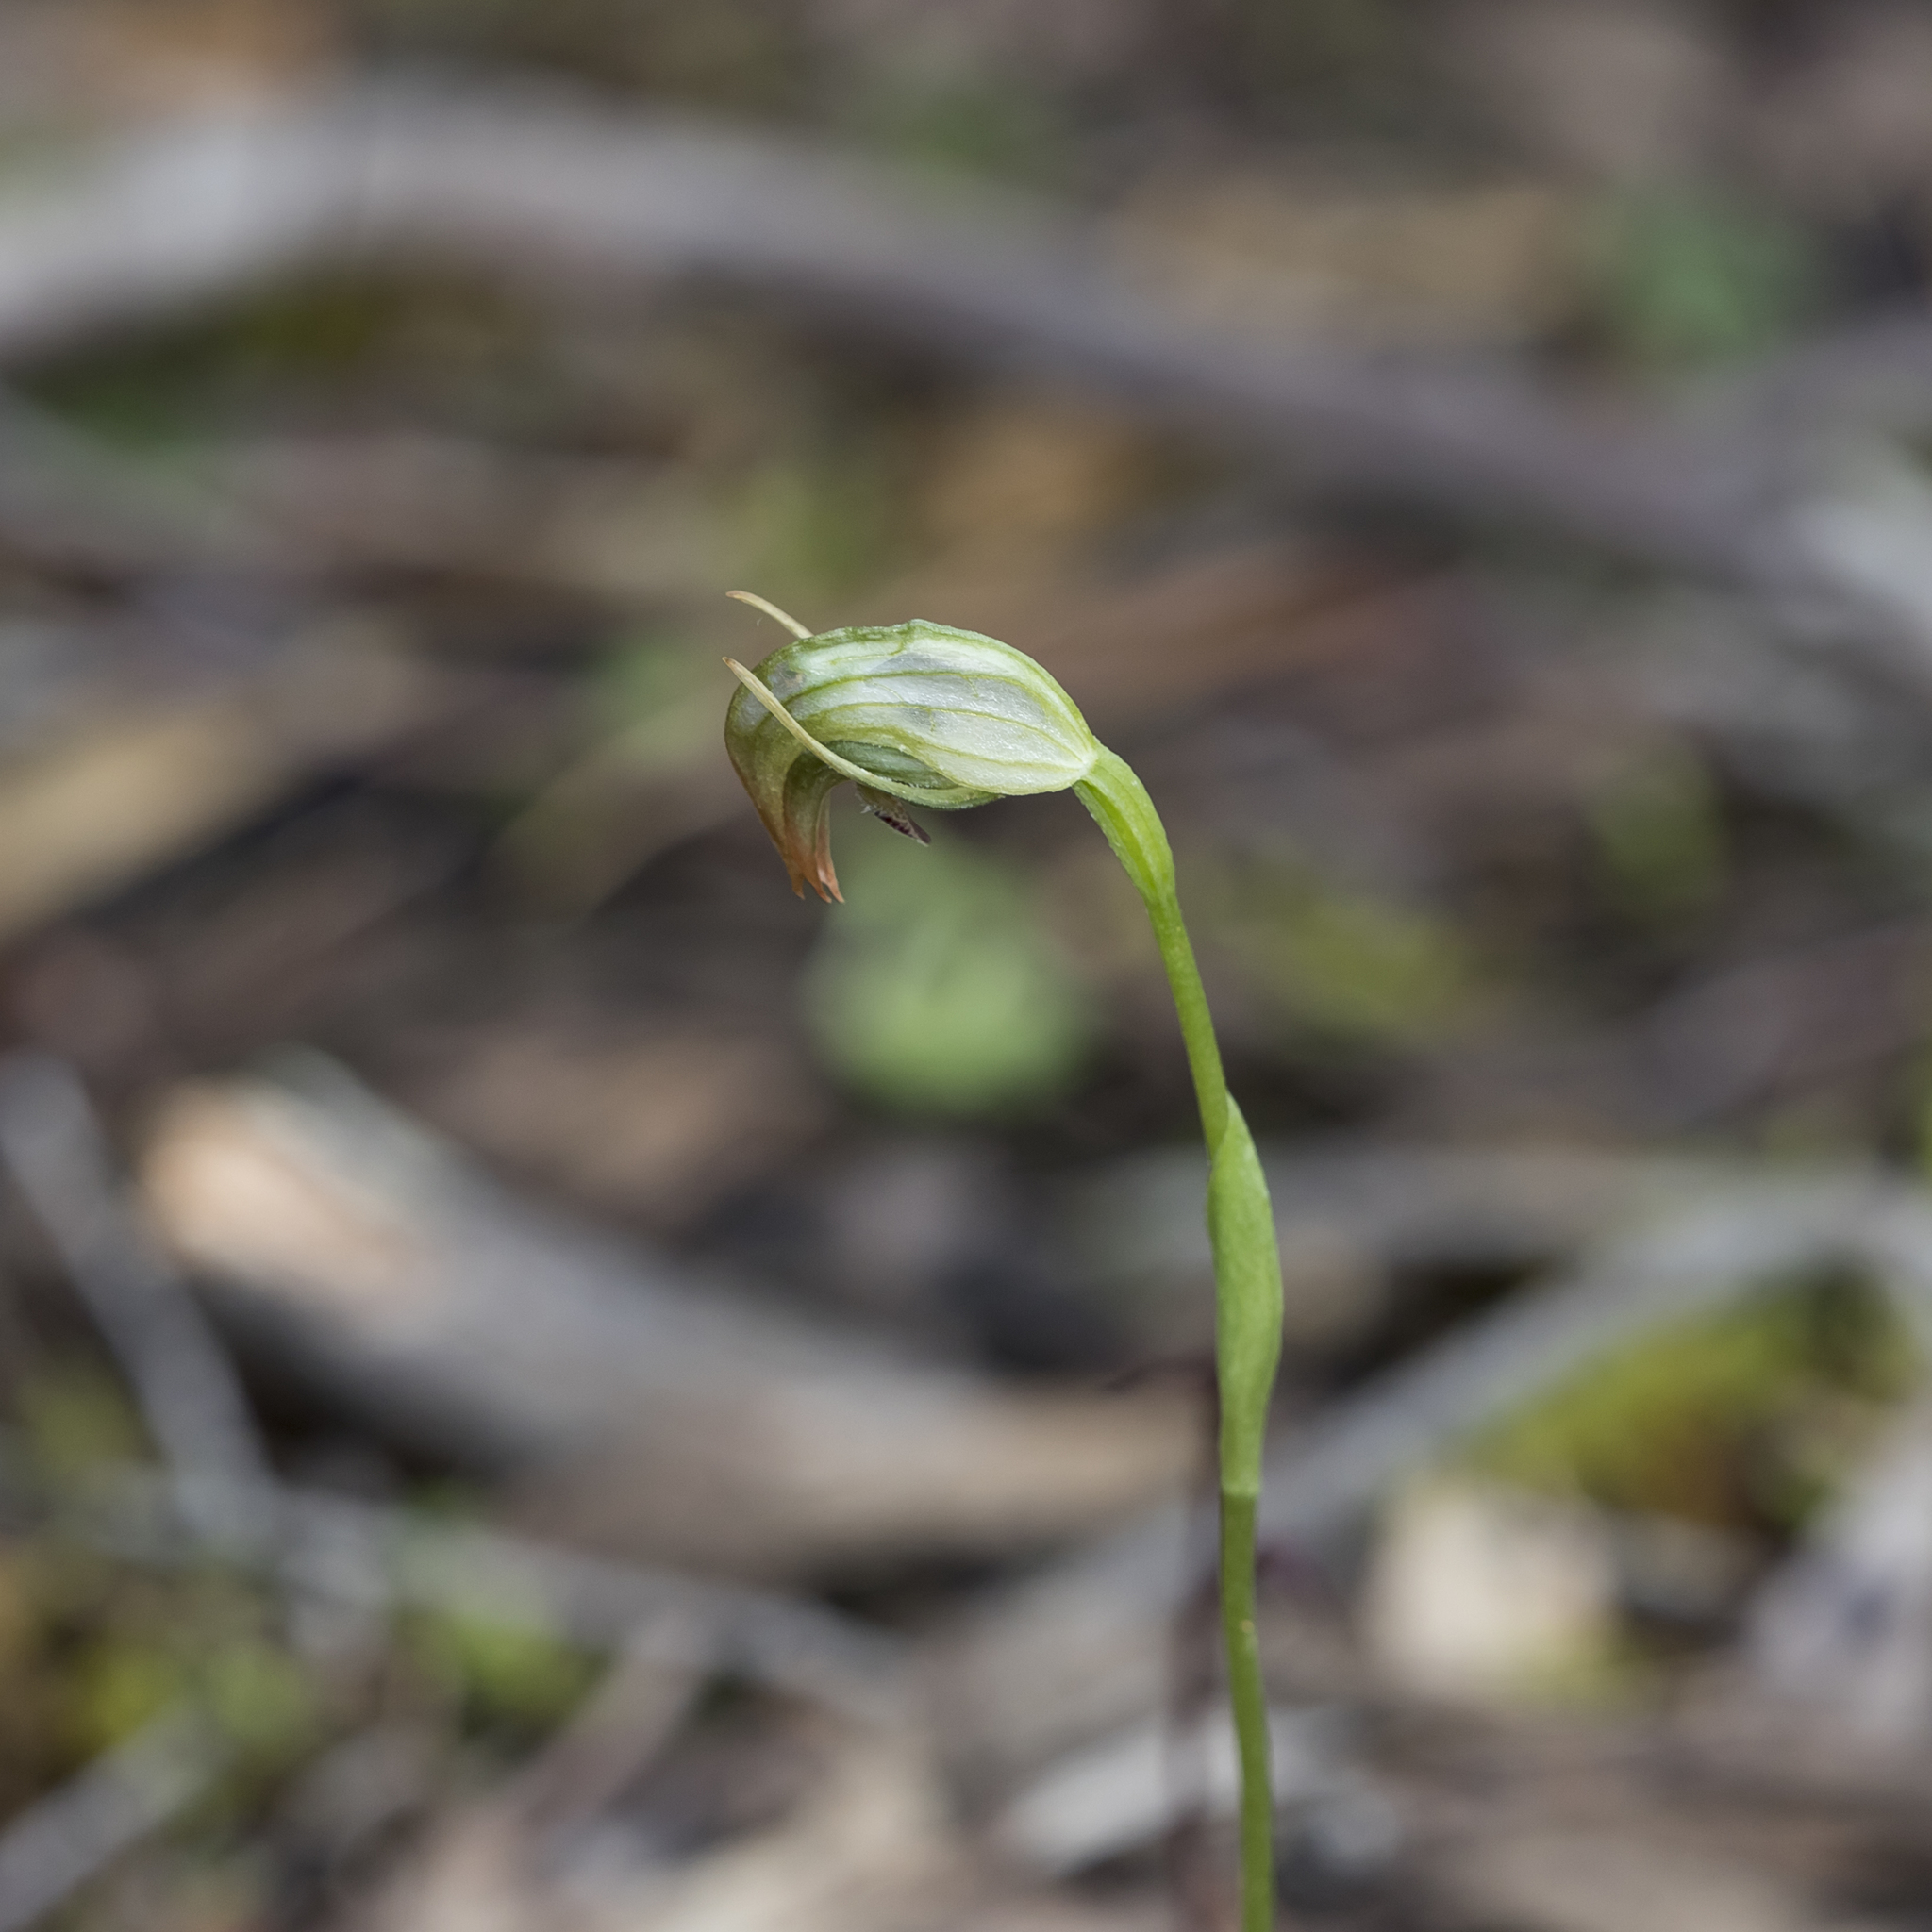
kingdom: Plantae
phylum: Tracheophyta
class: Liliopsida
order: Asparagales
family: Orchidaceae
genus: Pterostylis
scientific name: Pterostylis nutans
